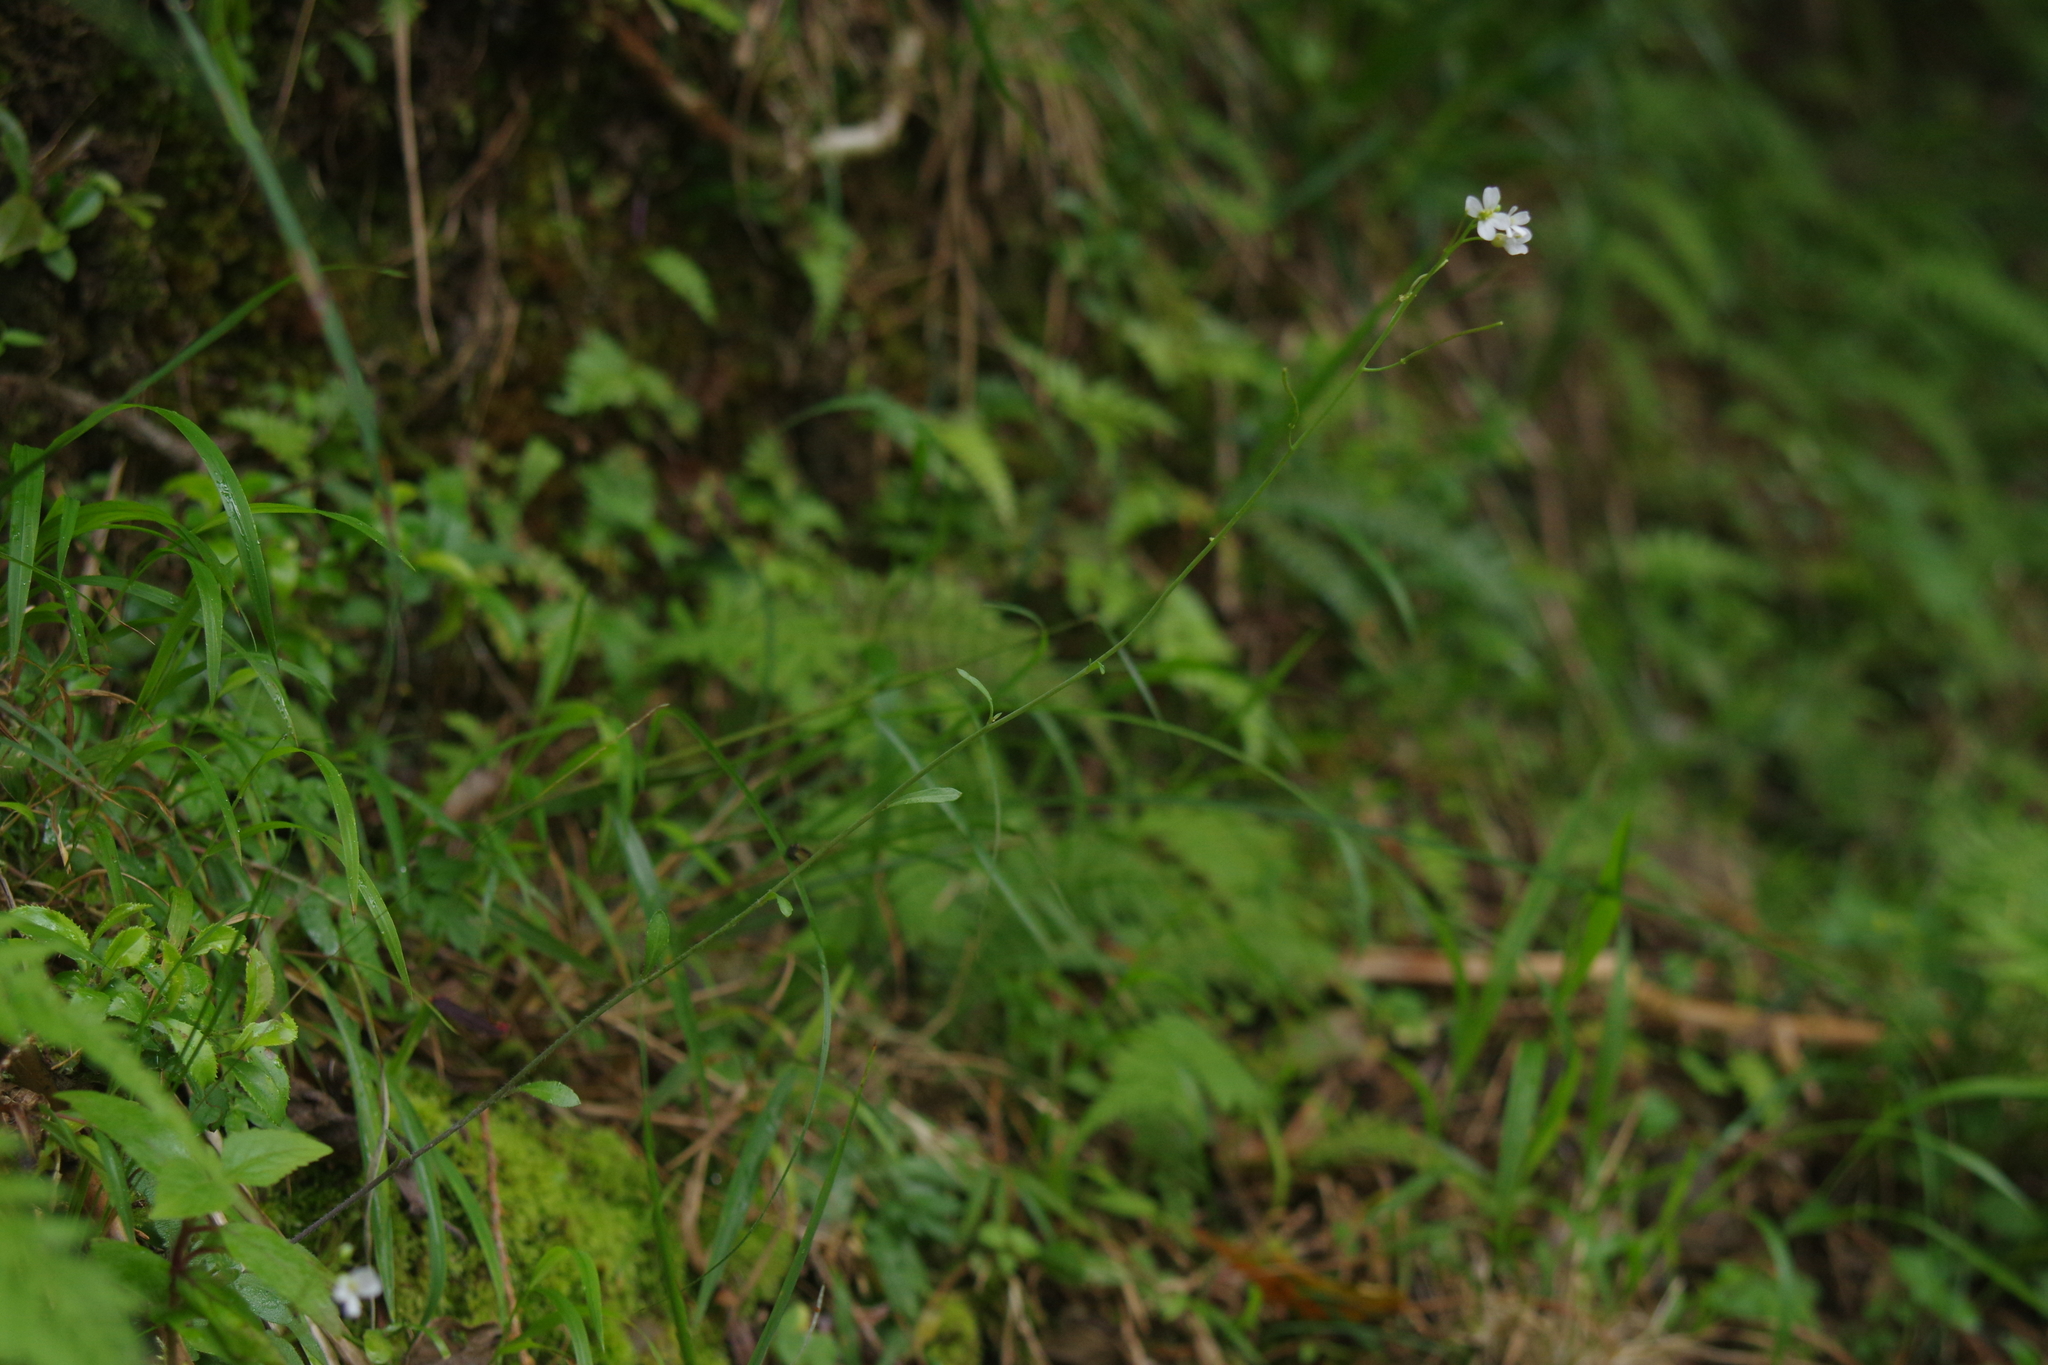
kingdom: Plantae
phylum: Tracheophyta
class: Magnoliopsida
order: Brassicales
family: Brassicaceae
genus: Arabidopsis
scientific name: Arabidopsis lyrata
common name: Lyrate rockcress
